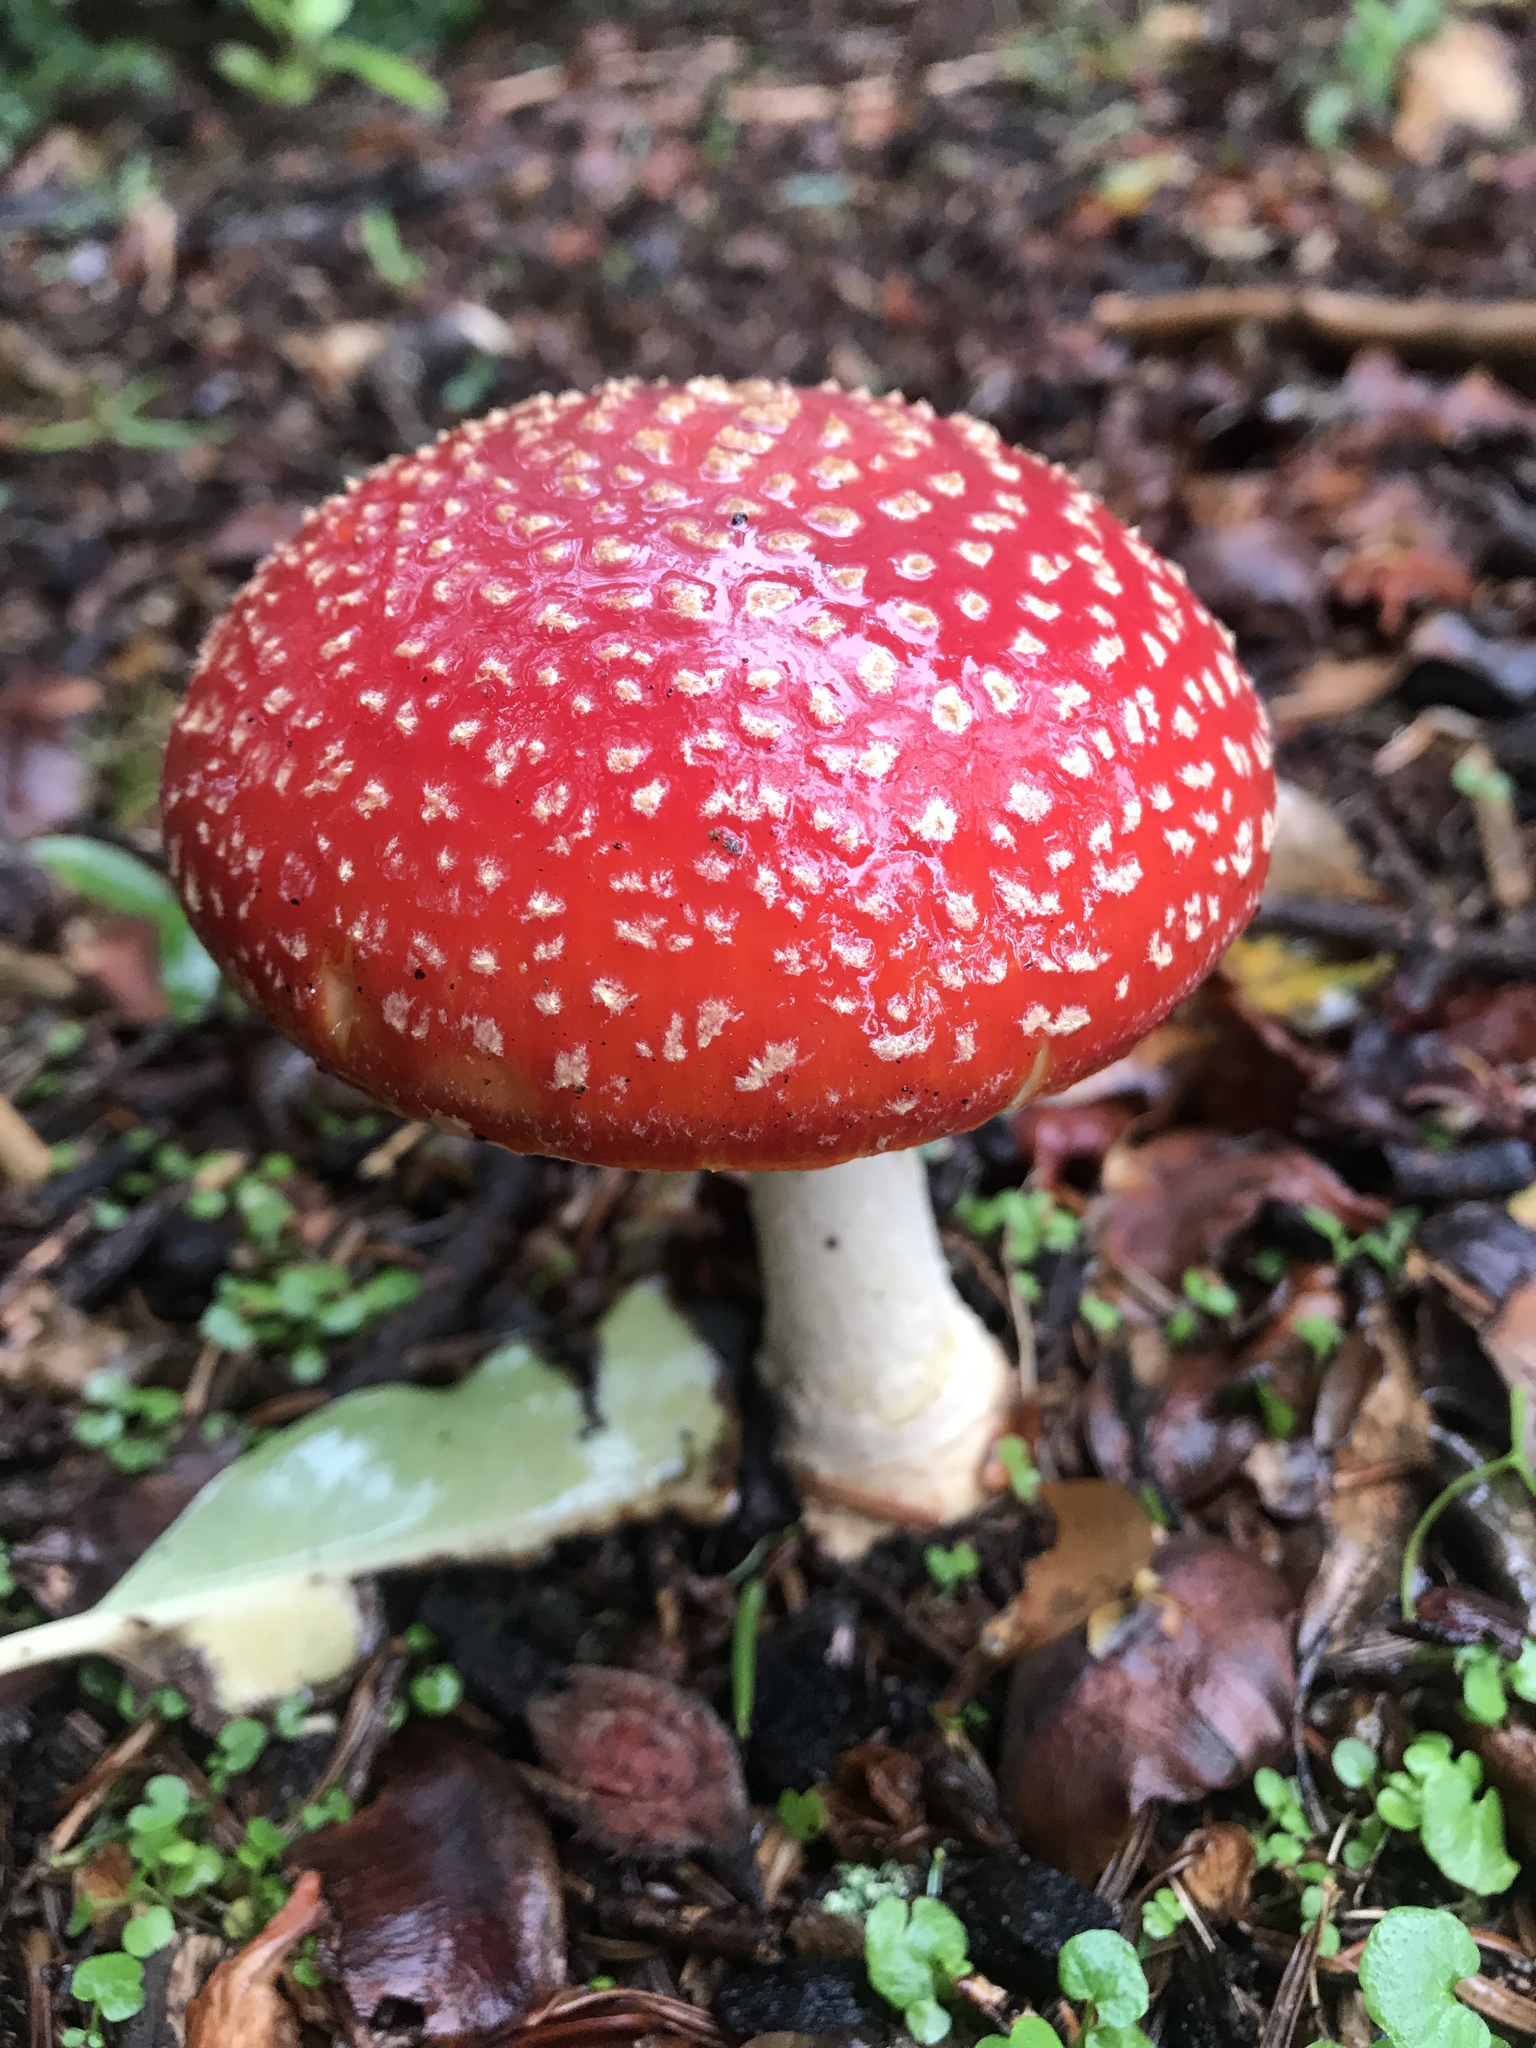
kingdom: Fungi
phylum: Basidiomycota
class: Agaricomycetes
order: Agaricales
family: Amanitaceae
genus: Amanita
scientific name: Amanita muscaria
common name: Fly agaric
